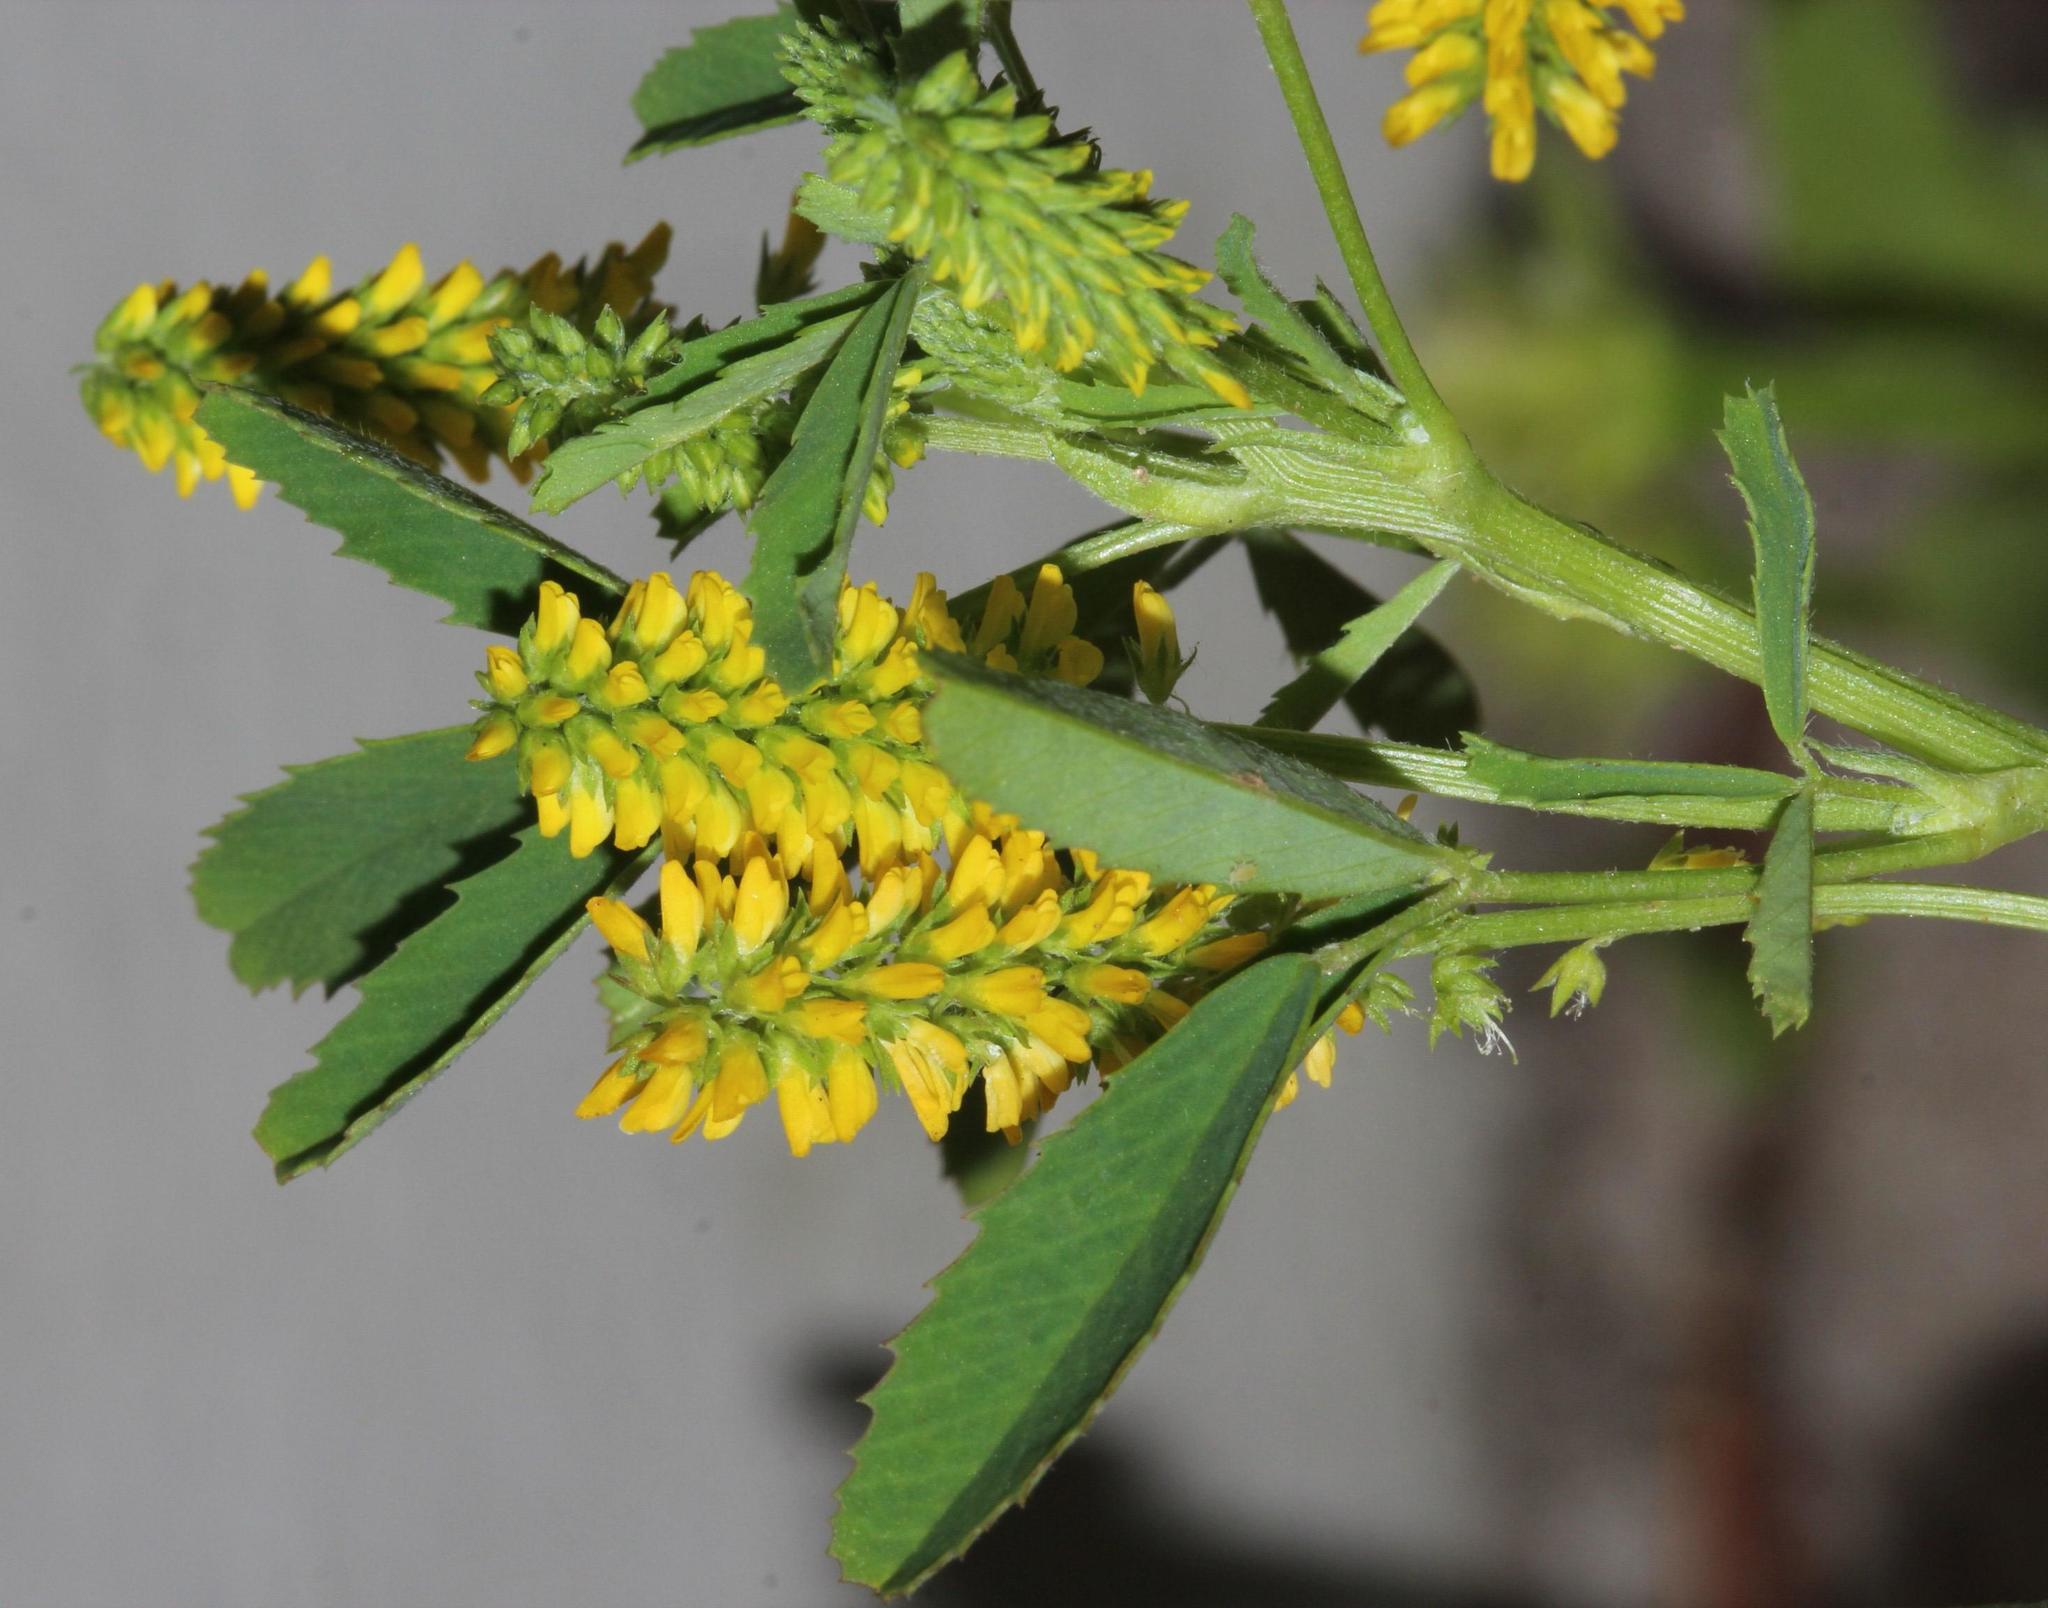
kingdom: Plantae
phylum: Tracheophyta
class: Magnoliopsida
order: Fabales
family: Fabaceae
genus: Melilotus
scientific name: Melilotus indicus
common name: Small melilot
